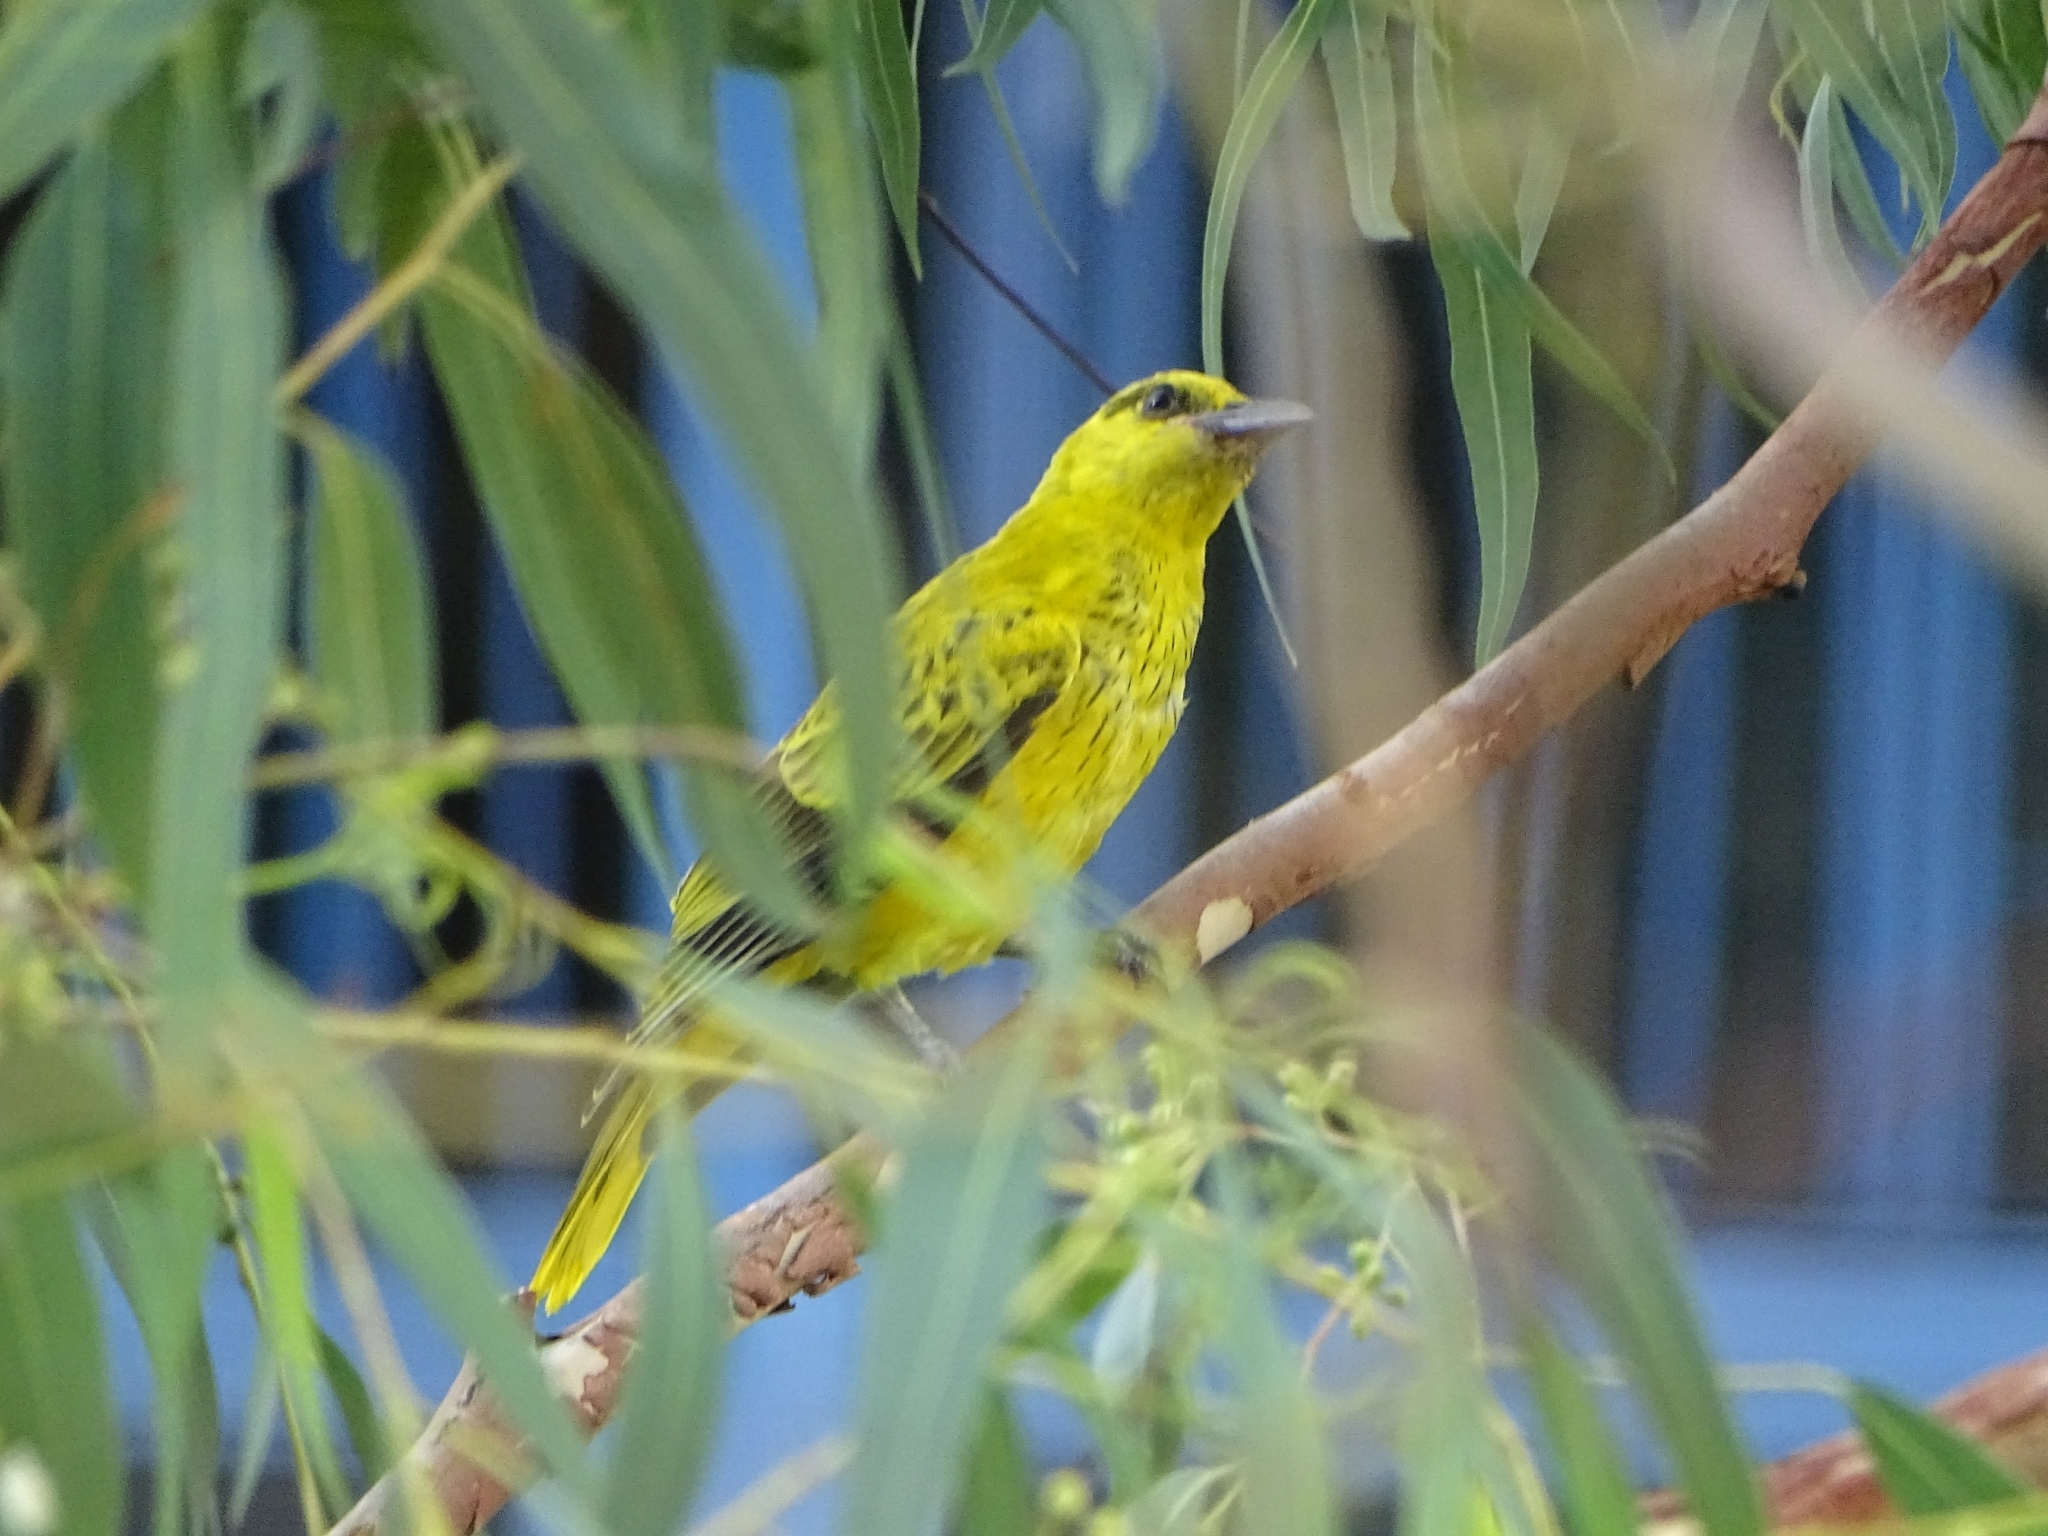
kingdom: Animalia
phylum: Chordata
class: Aves
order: Passeriformes
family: Oriolidae
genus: Oriolus
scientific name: Oriolus chinensis
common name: Black-naped oriole
